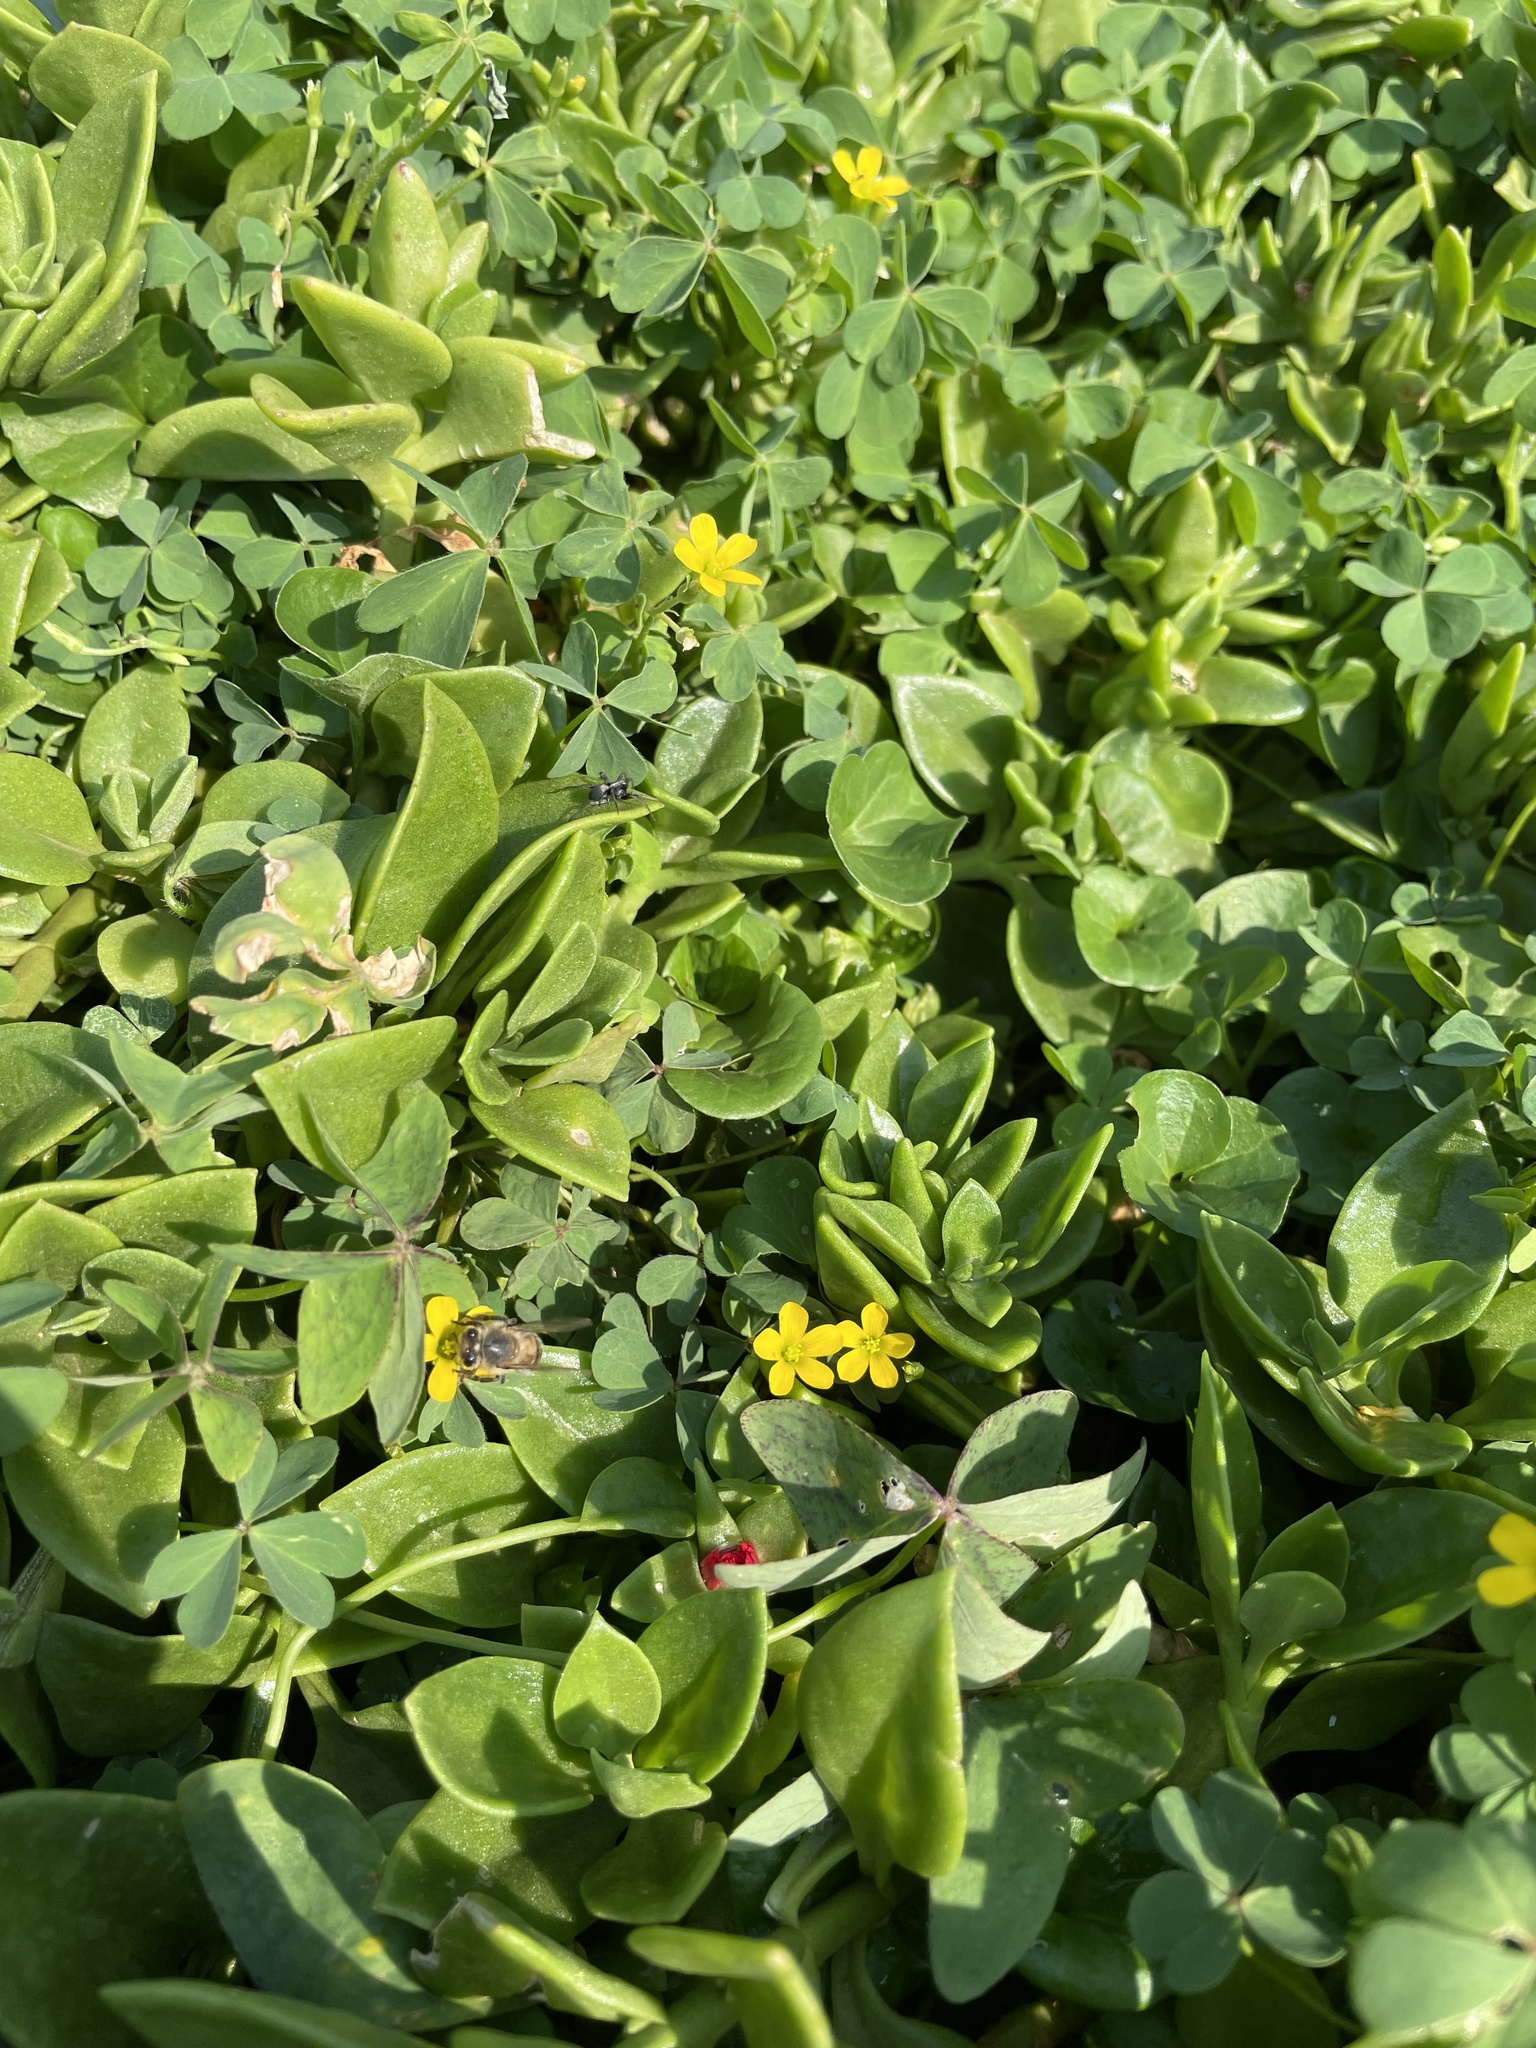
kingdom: Plantae
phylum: Tracheophyta
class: Magnoliopsida
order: Oxalidales
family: Oxalidaceae
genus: Oxalis
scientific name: Oxalis corniculata
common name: Procumbent yellow-sorrel
